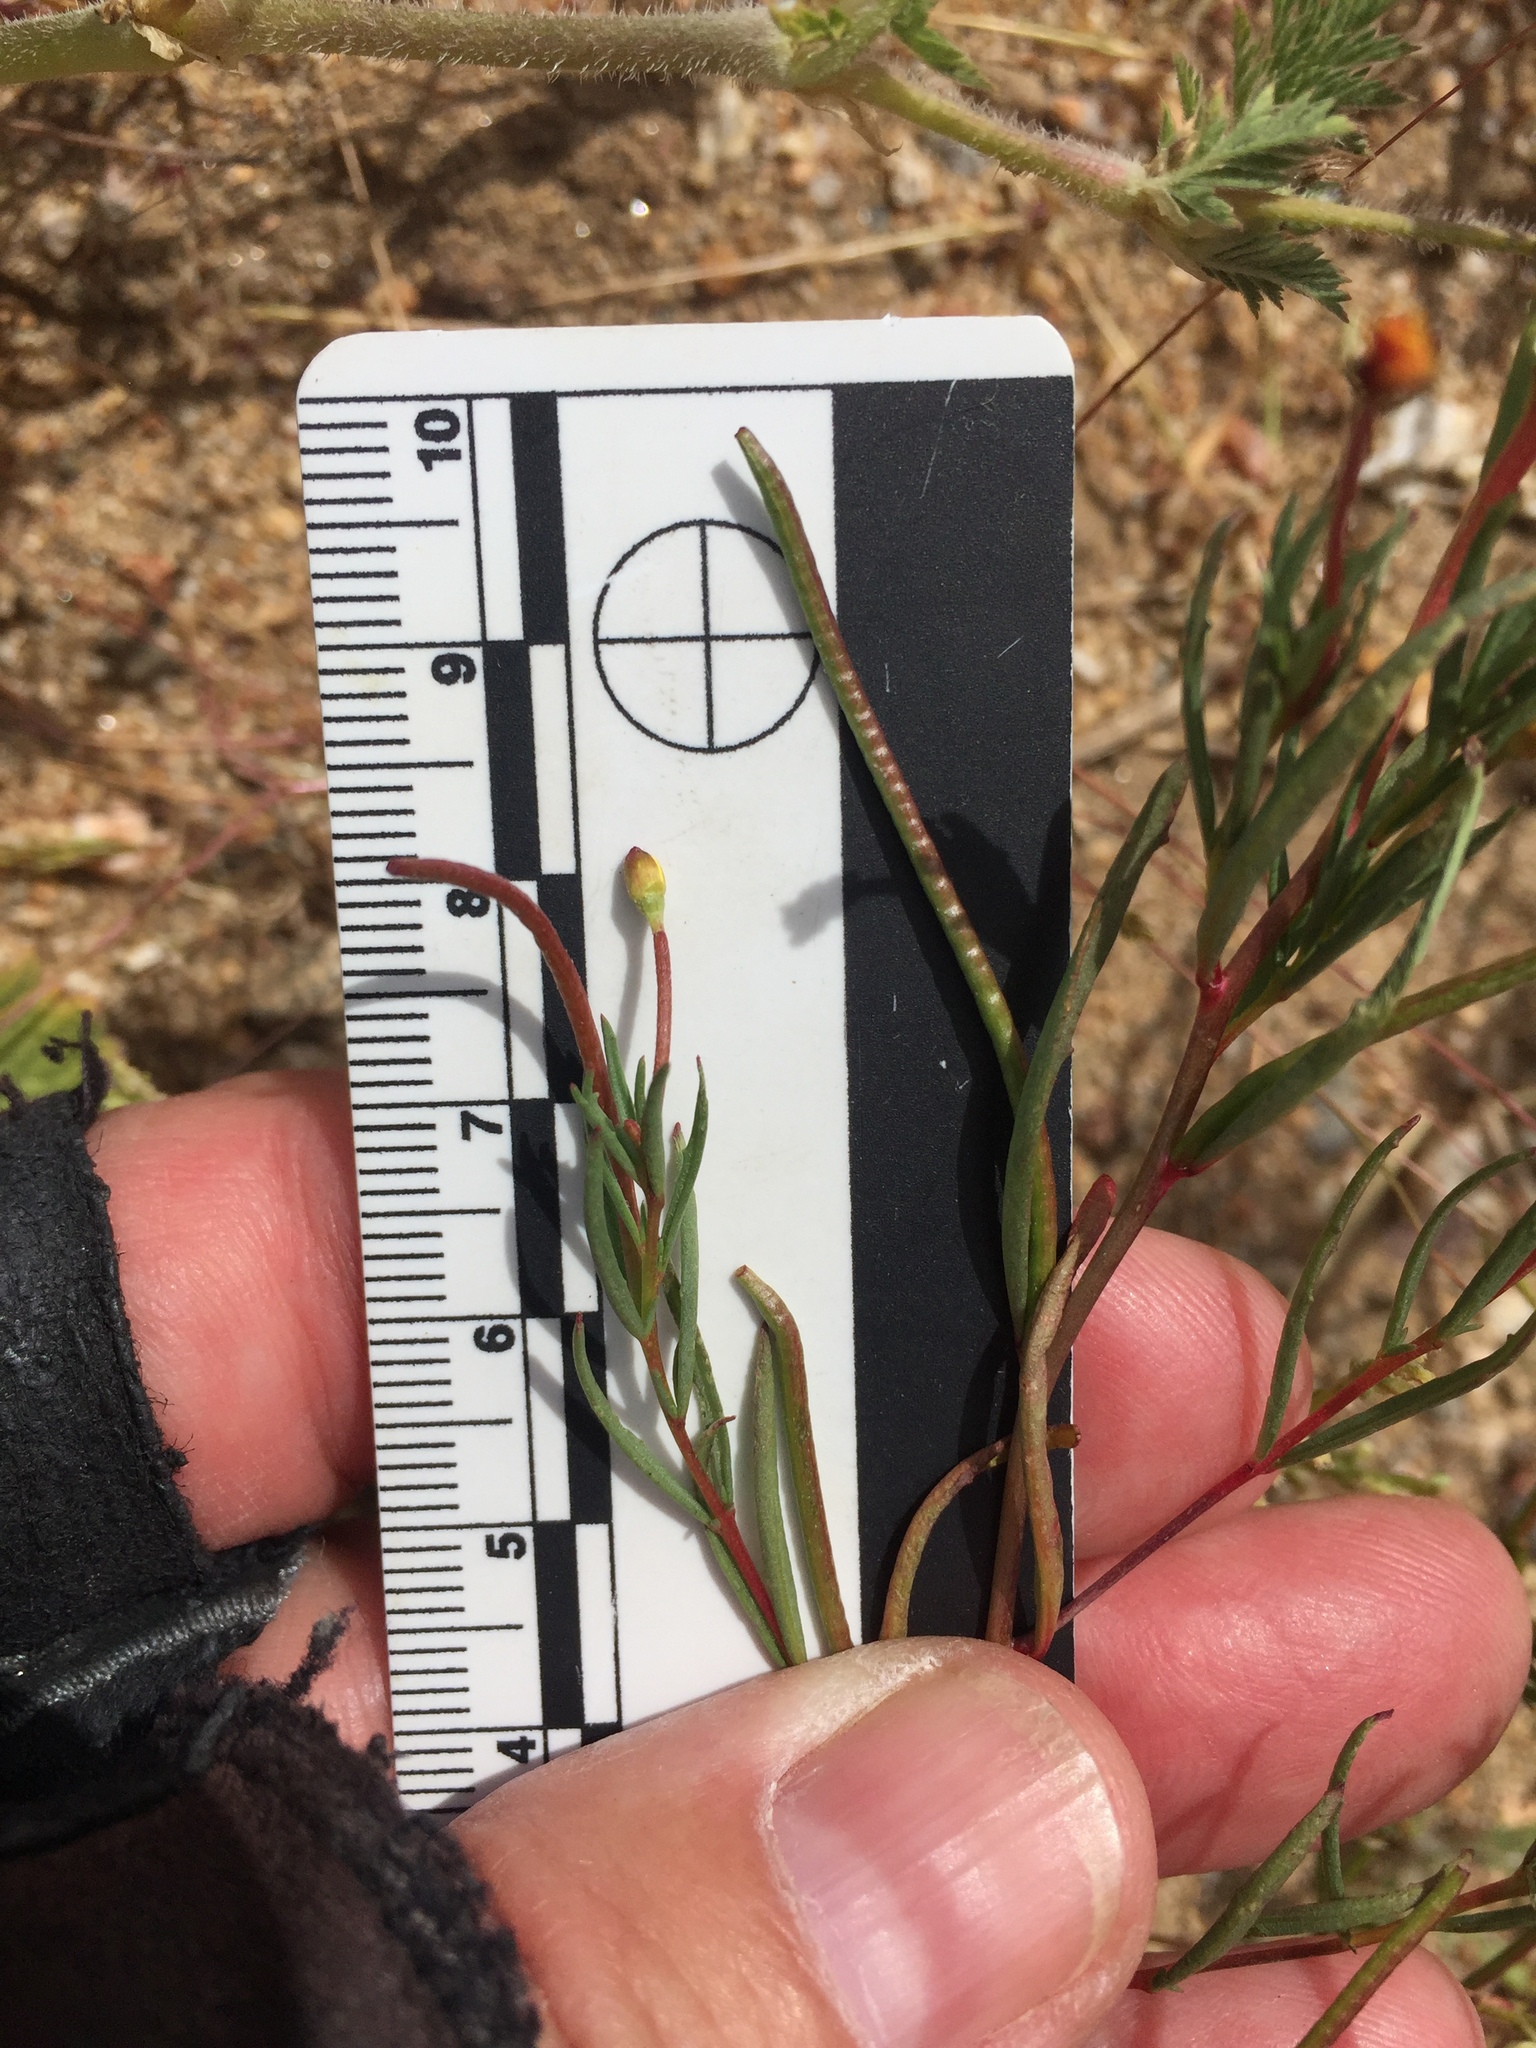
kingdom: Plantae
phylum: Tracheophyta
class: Magnoliopsida
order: Myrtales
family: Onagraceae
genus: Camissonia
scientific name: Camissonia strigulosa
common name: Contorted-primrose
